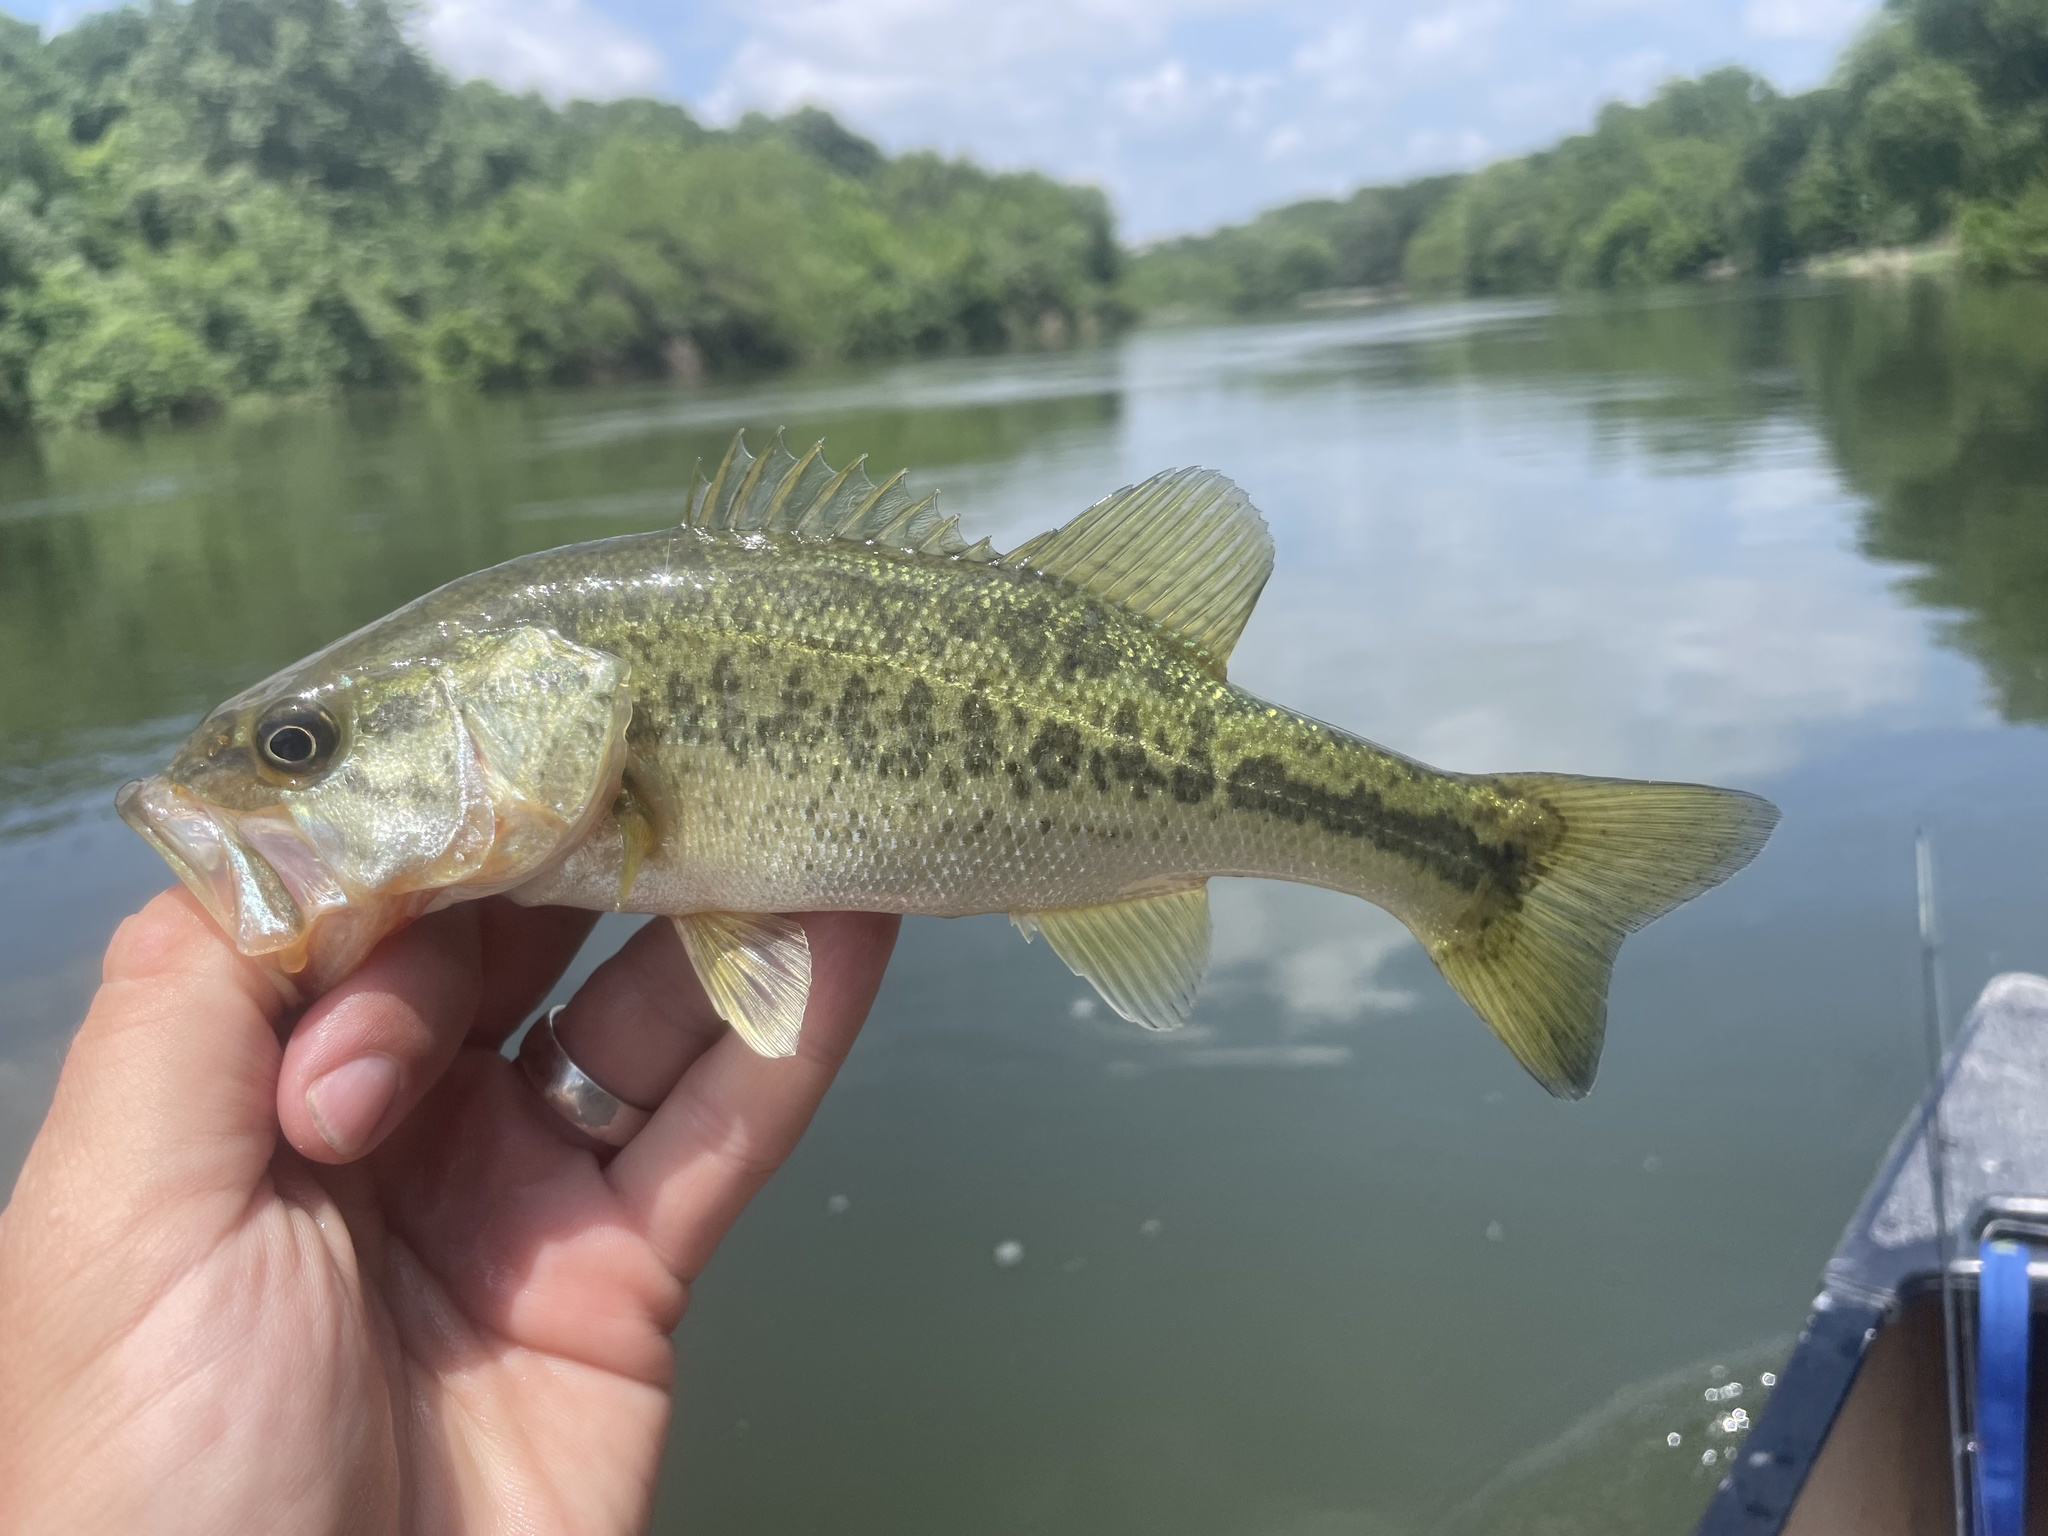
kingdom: Animalia
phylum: Chordata
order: Perciformes
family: Centrarchidae
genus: Micropterus
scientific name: Micropterus
